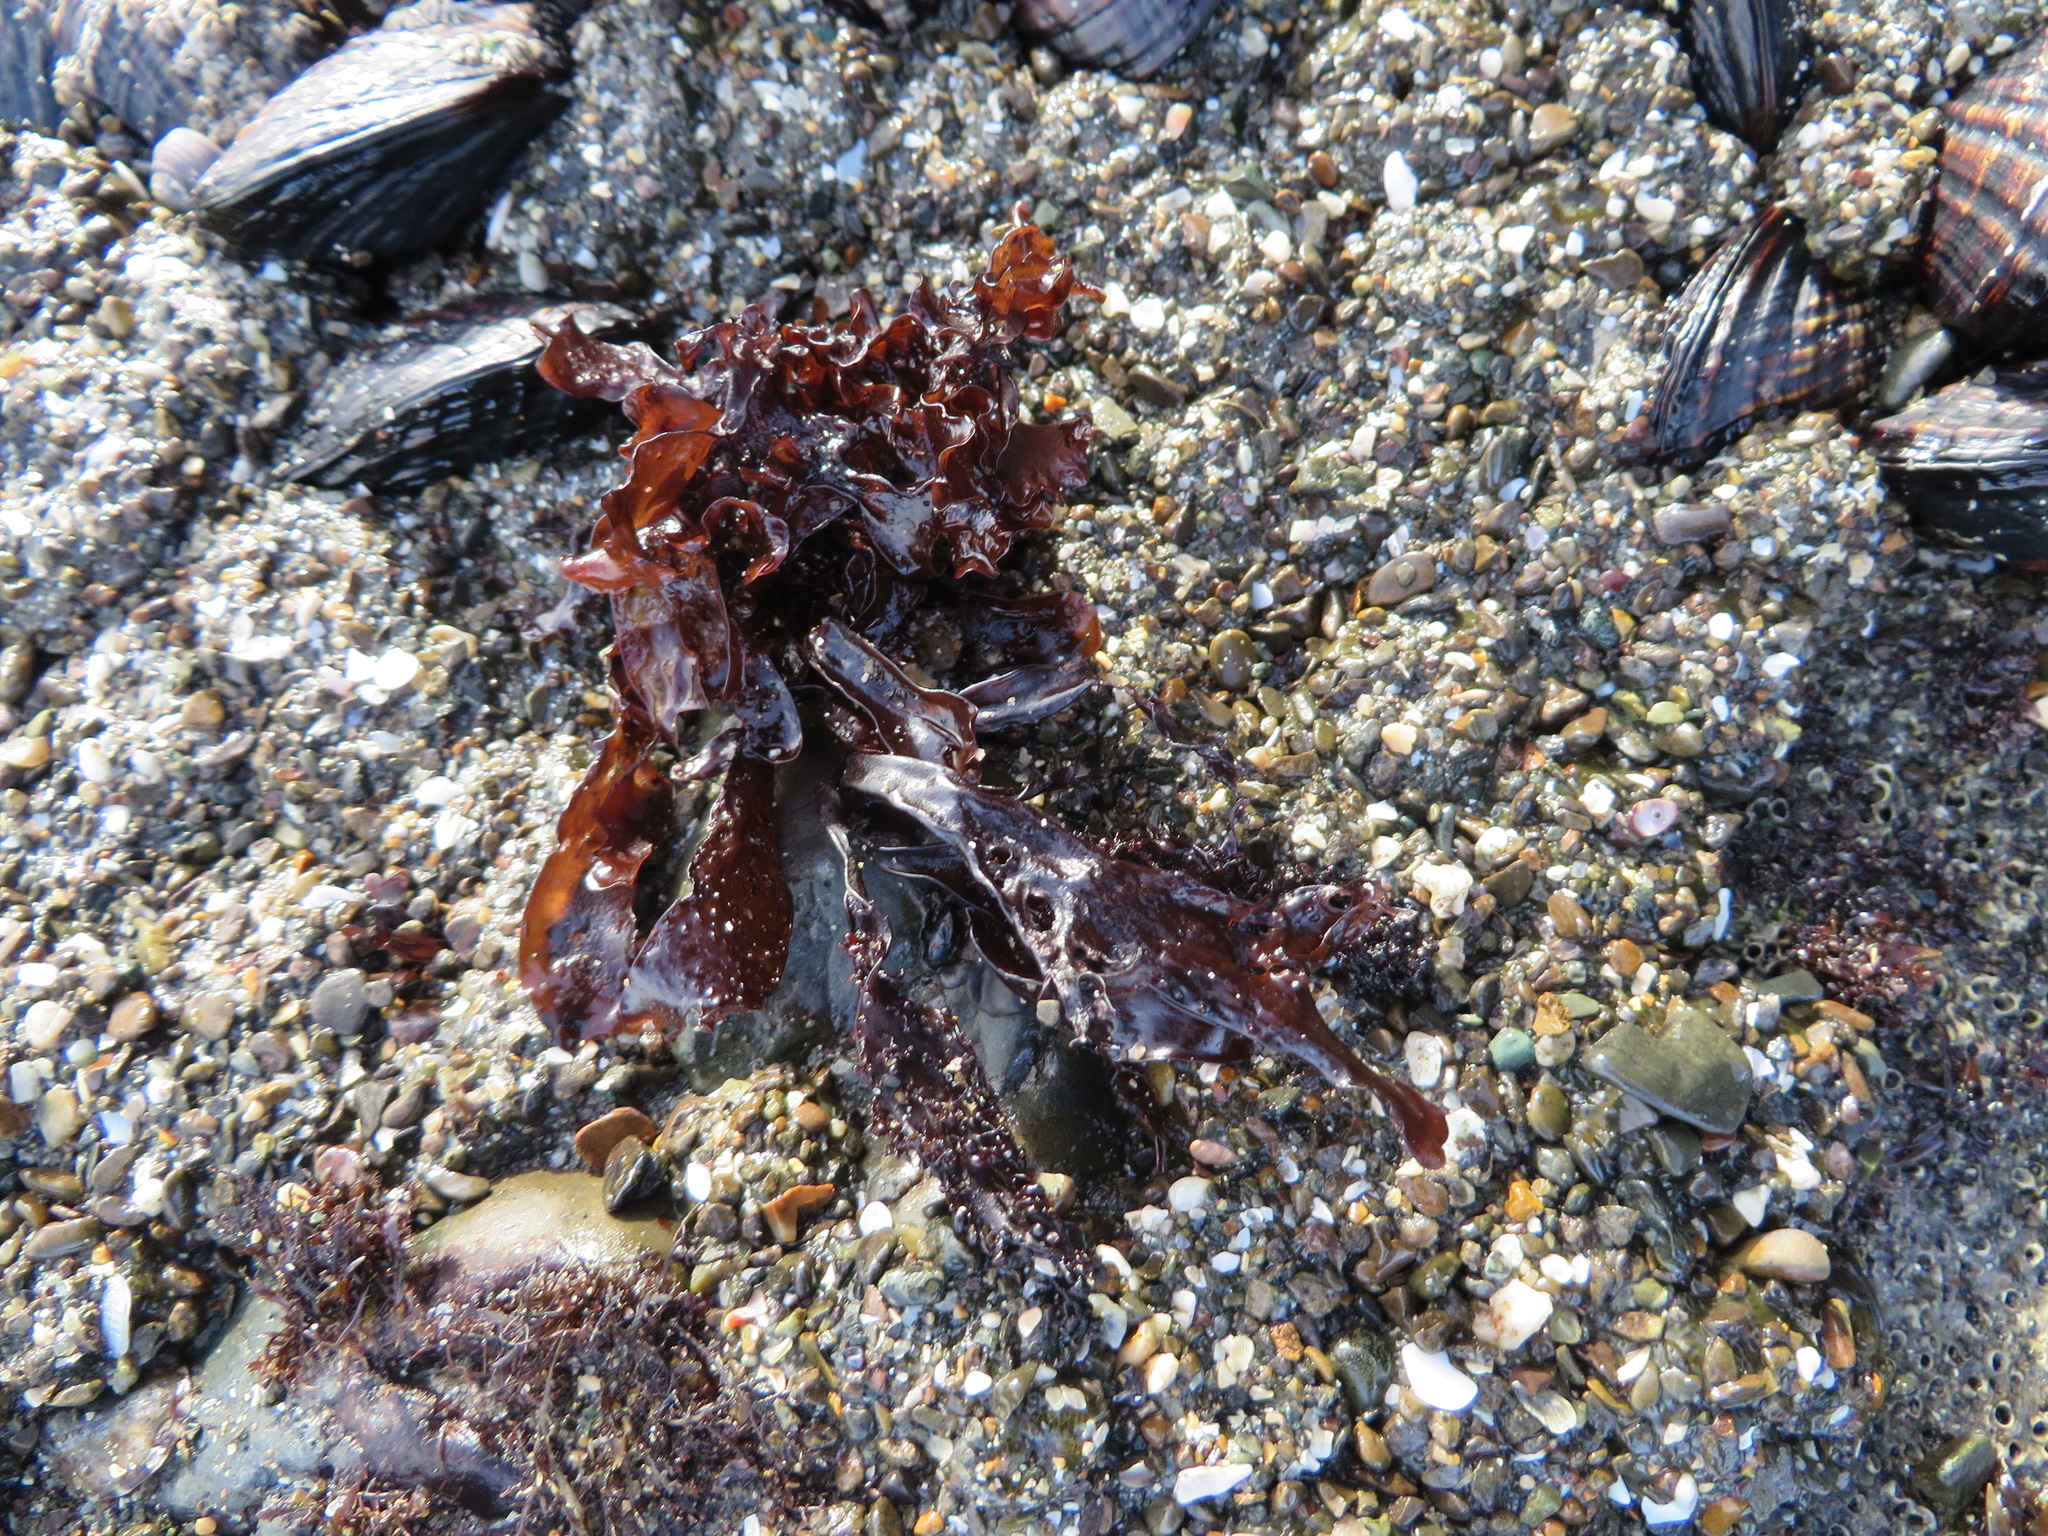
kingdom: Plantae
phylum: Rhodophyta
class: Florideophyceae
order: Gigartinales
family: Phyllophoraceae
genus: Mastocarpus
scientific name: Mastocarpus papillatus
